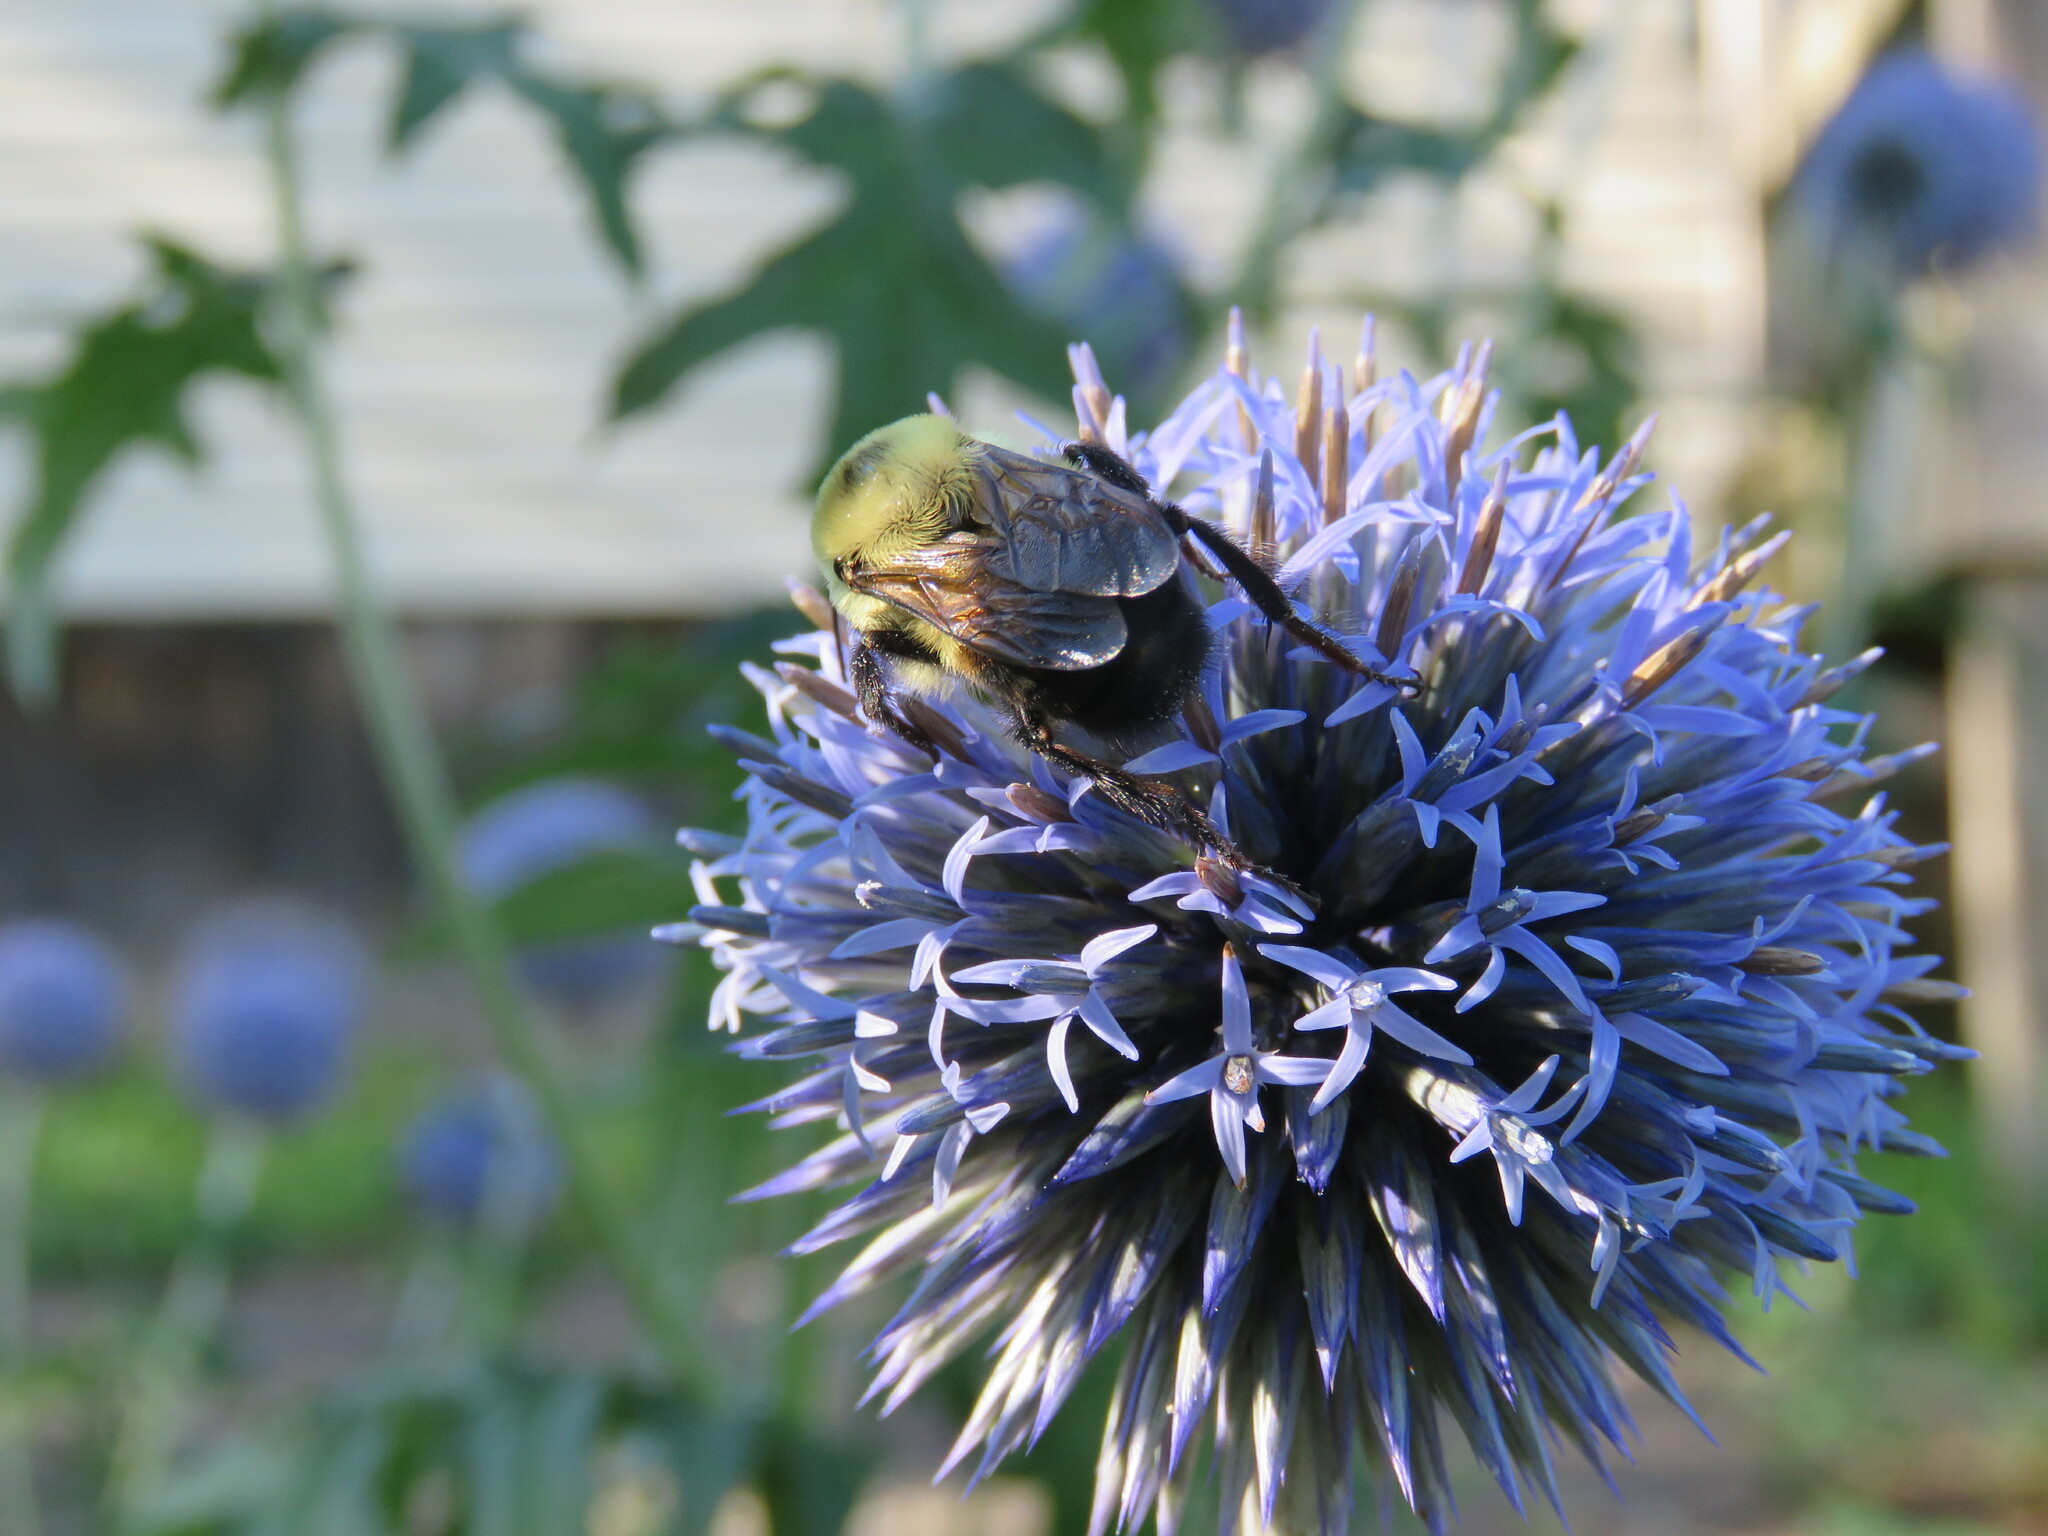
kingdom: Animalia
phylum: Arthropoda
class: Insecta
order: Hymenoptera
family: Apidae
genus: Bombus
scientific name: Bombus griseocollis
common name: Brown-belted bumble bee
